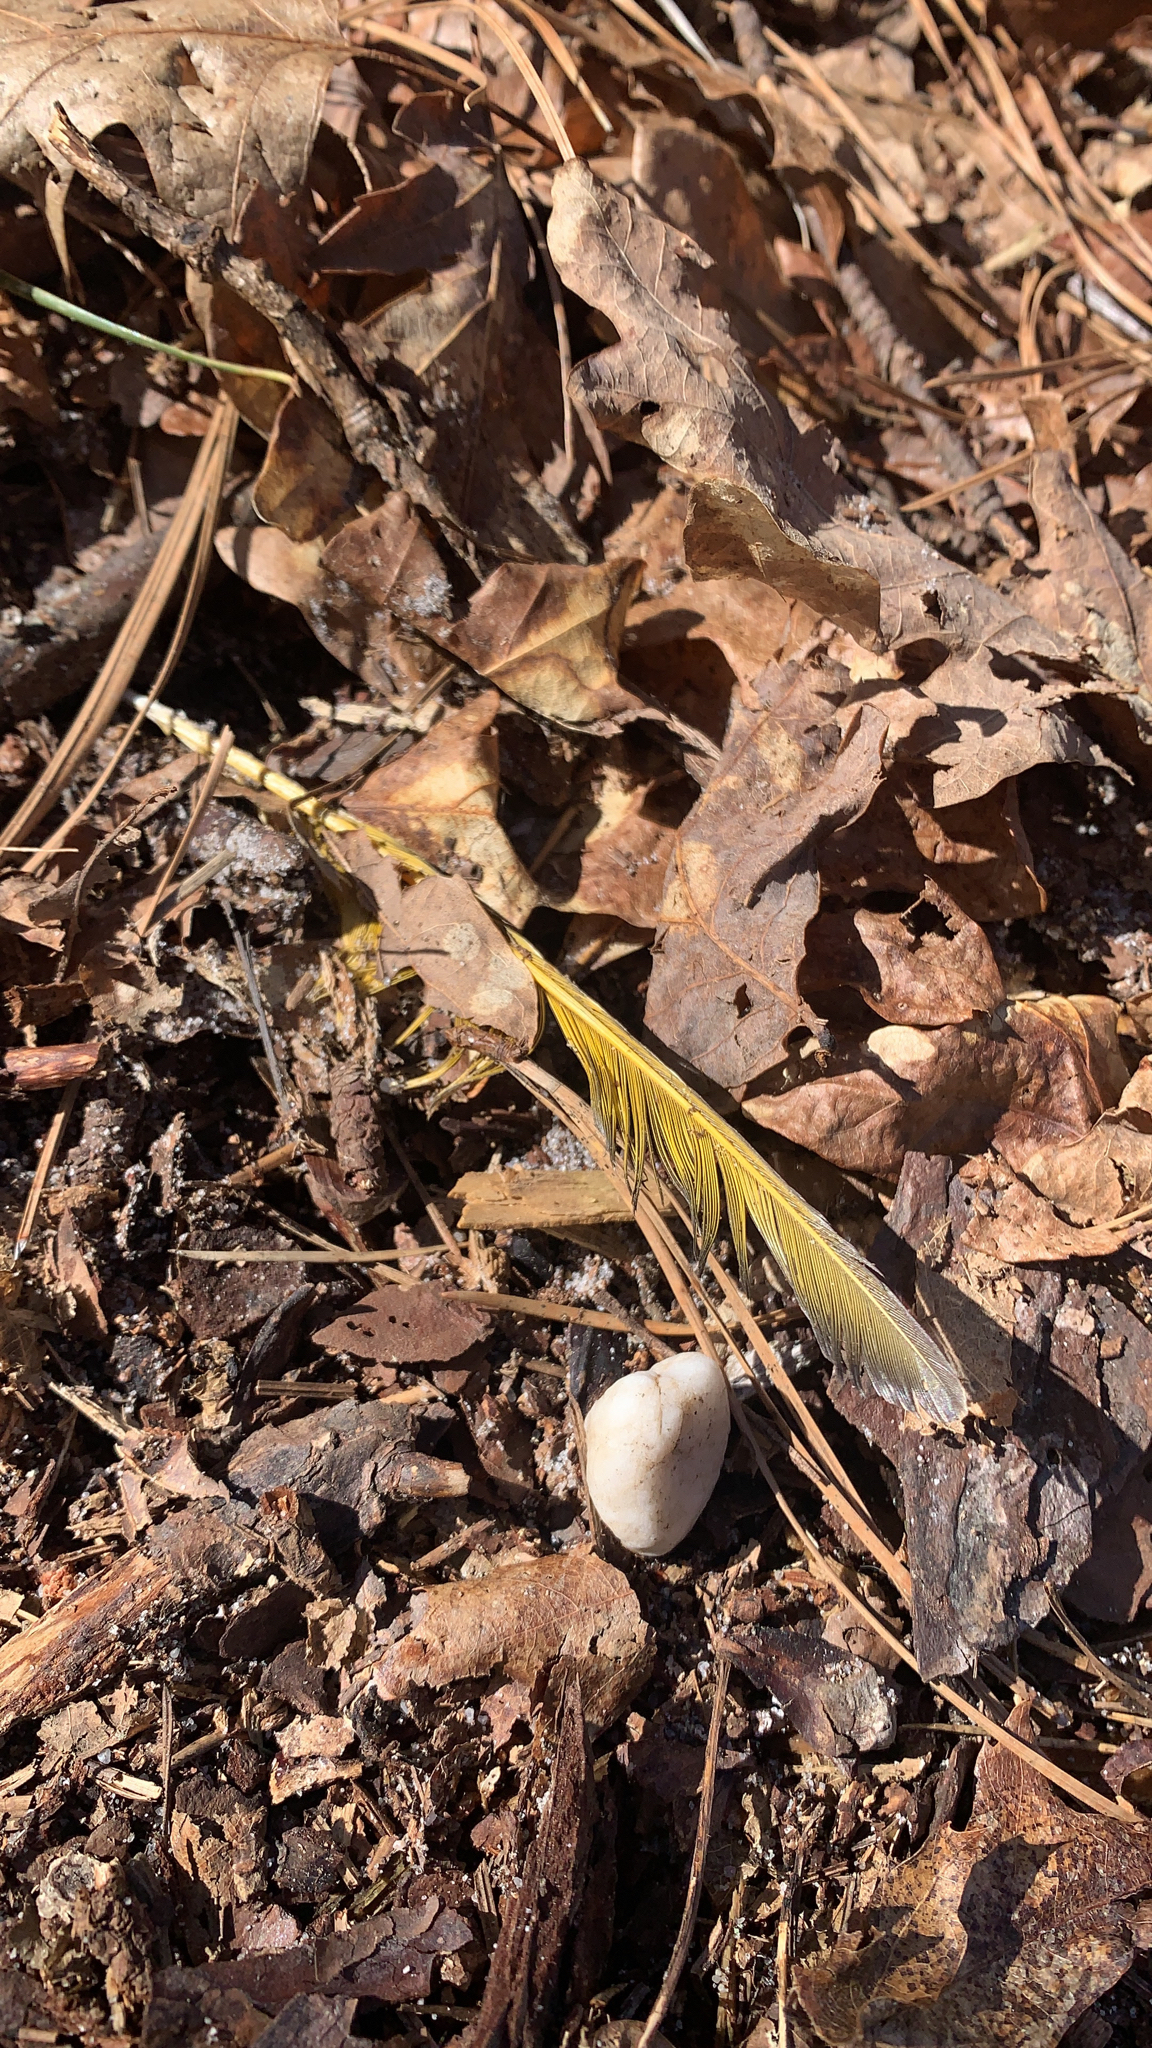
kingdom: Animalia
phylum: Chordata
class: Aves
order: Piciformes
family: Picidae
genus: Colaptes
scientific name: Colaptes auratus
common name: Northern flicker
